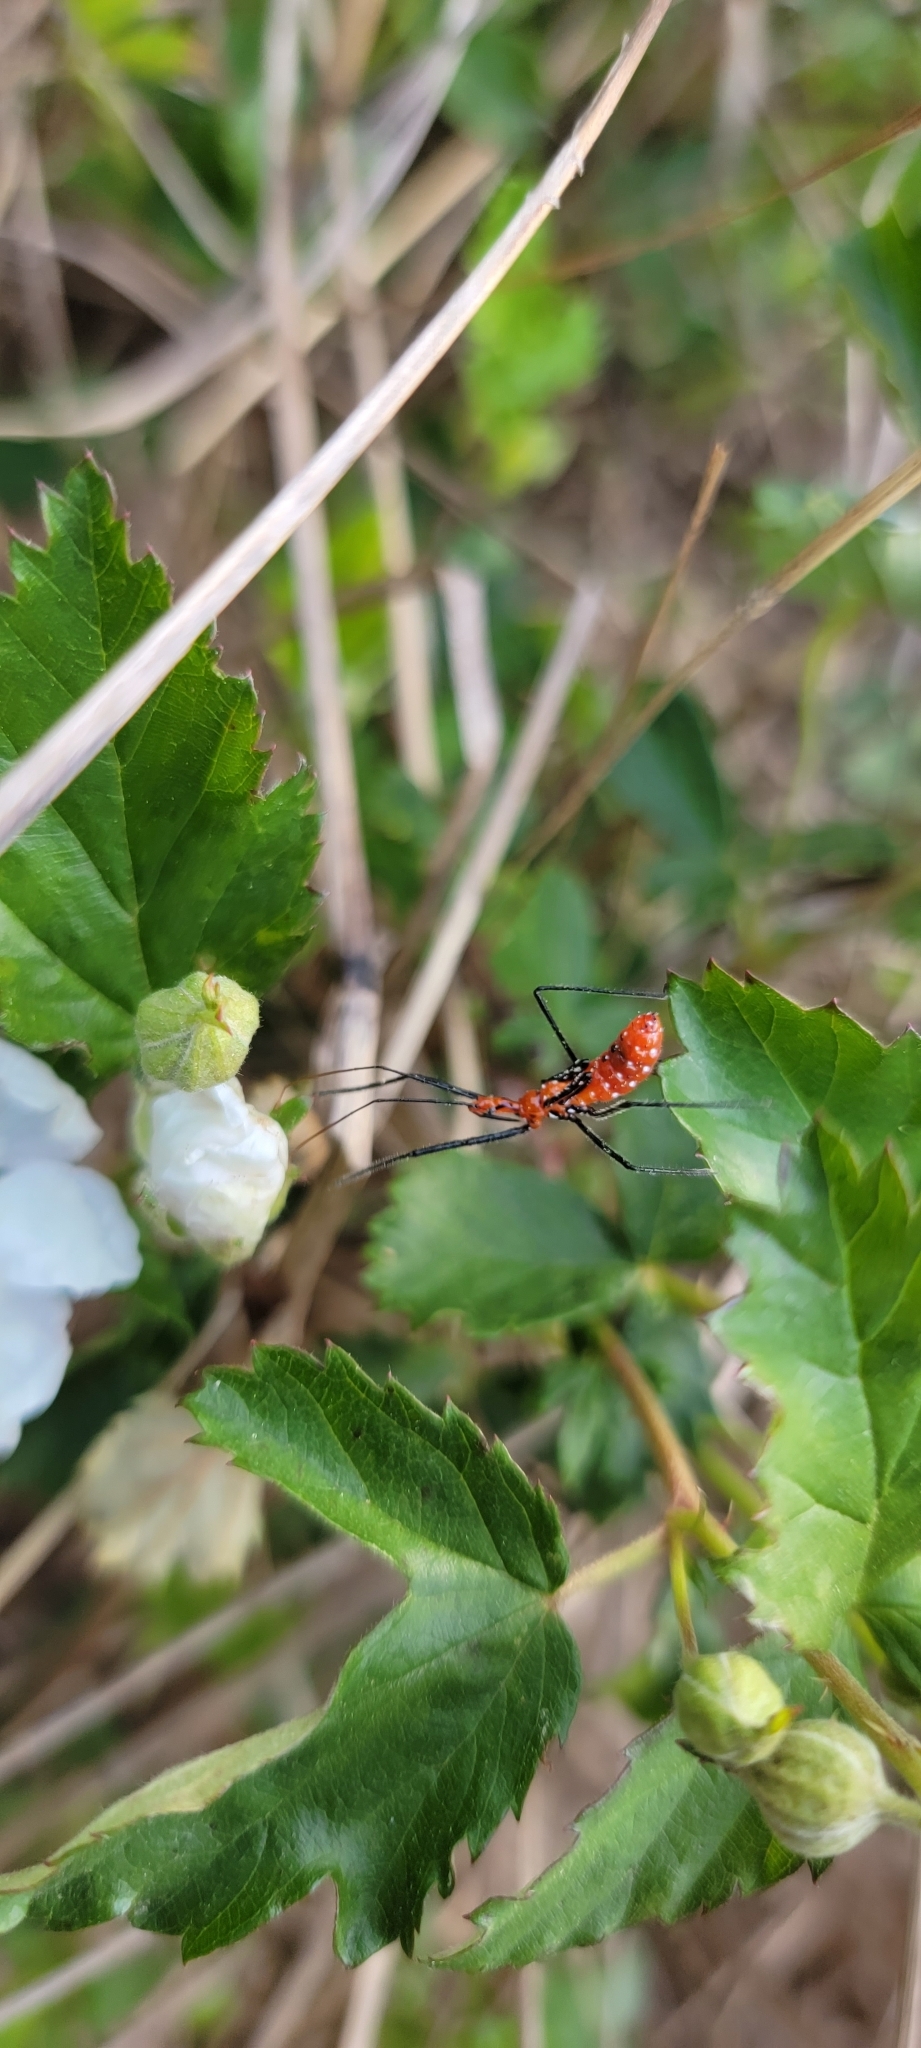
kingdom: Animalia
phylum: Arthropoda
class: Insecta
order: Hemiptera
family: Reduviidae
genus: Zelus
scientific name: Zelus longipes
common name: Milkweed assassin bug
